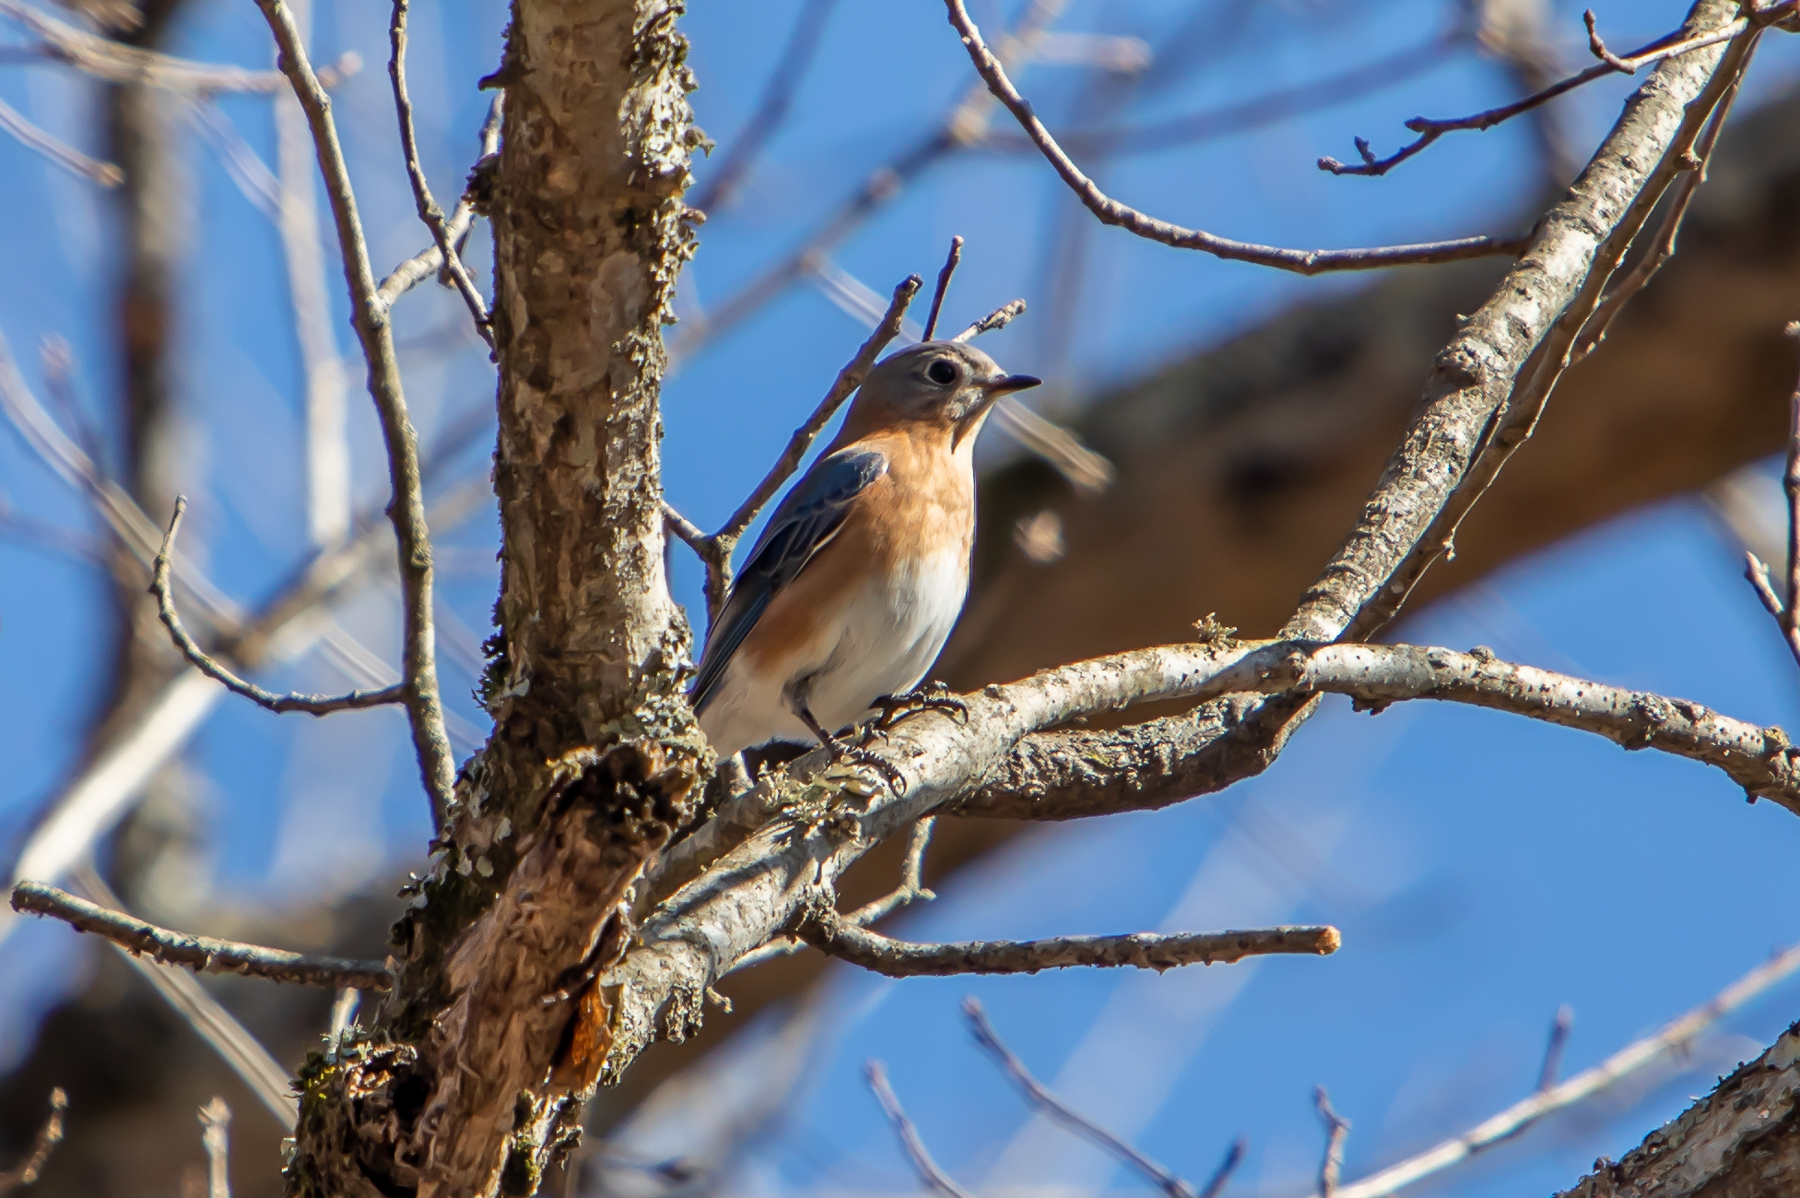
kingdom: Animalia
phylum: Chordata
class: Aves
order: Passeriformes
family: Turdidae
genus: Sialia
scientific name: Sialia sialis
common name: Eastern bluebird
